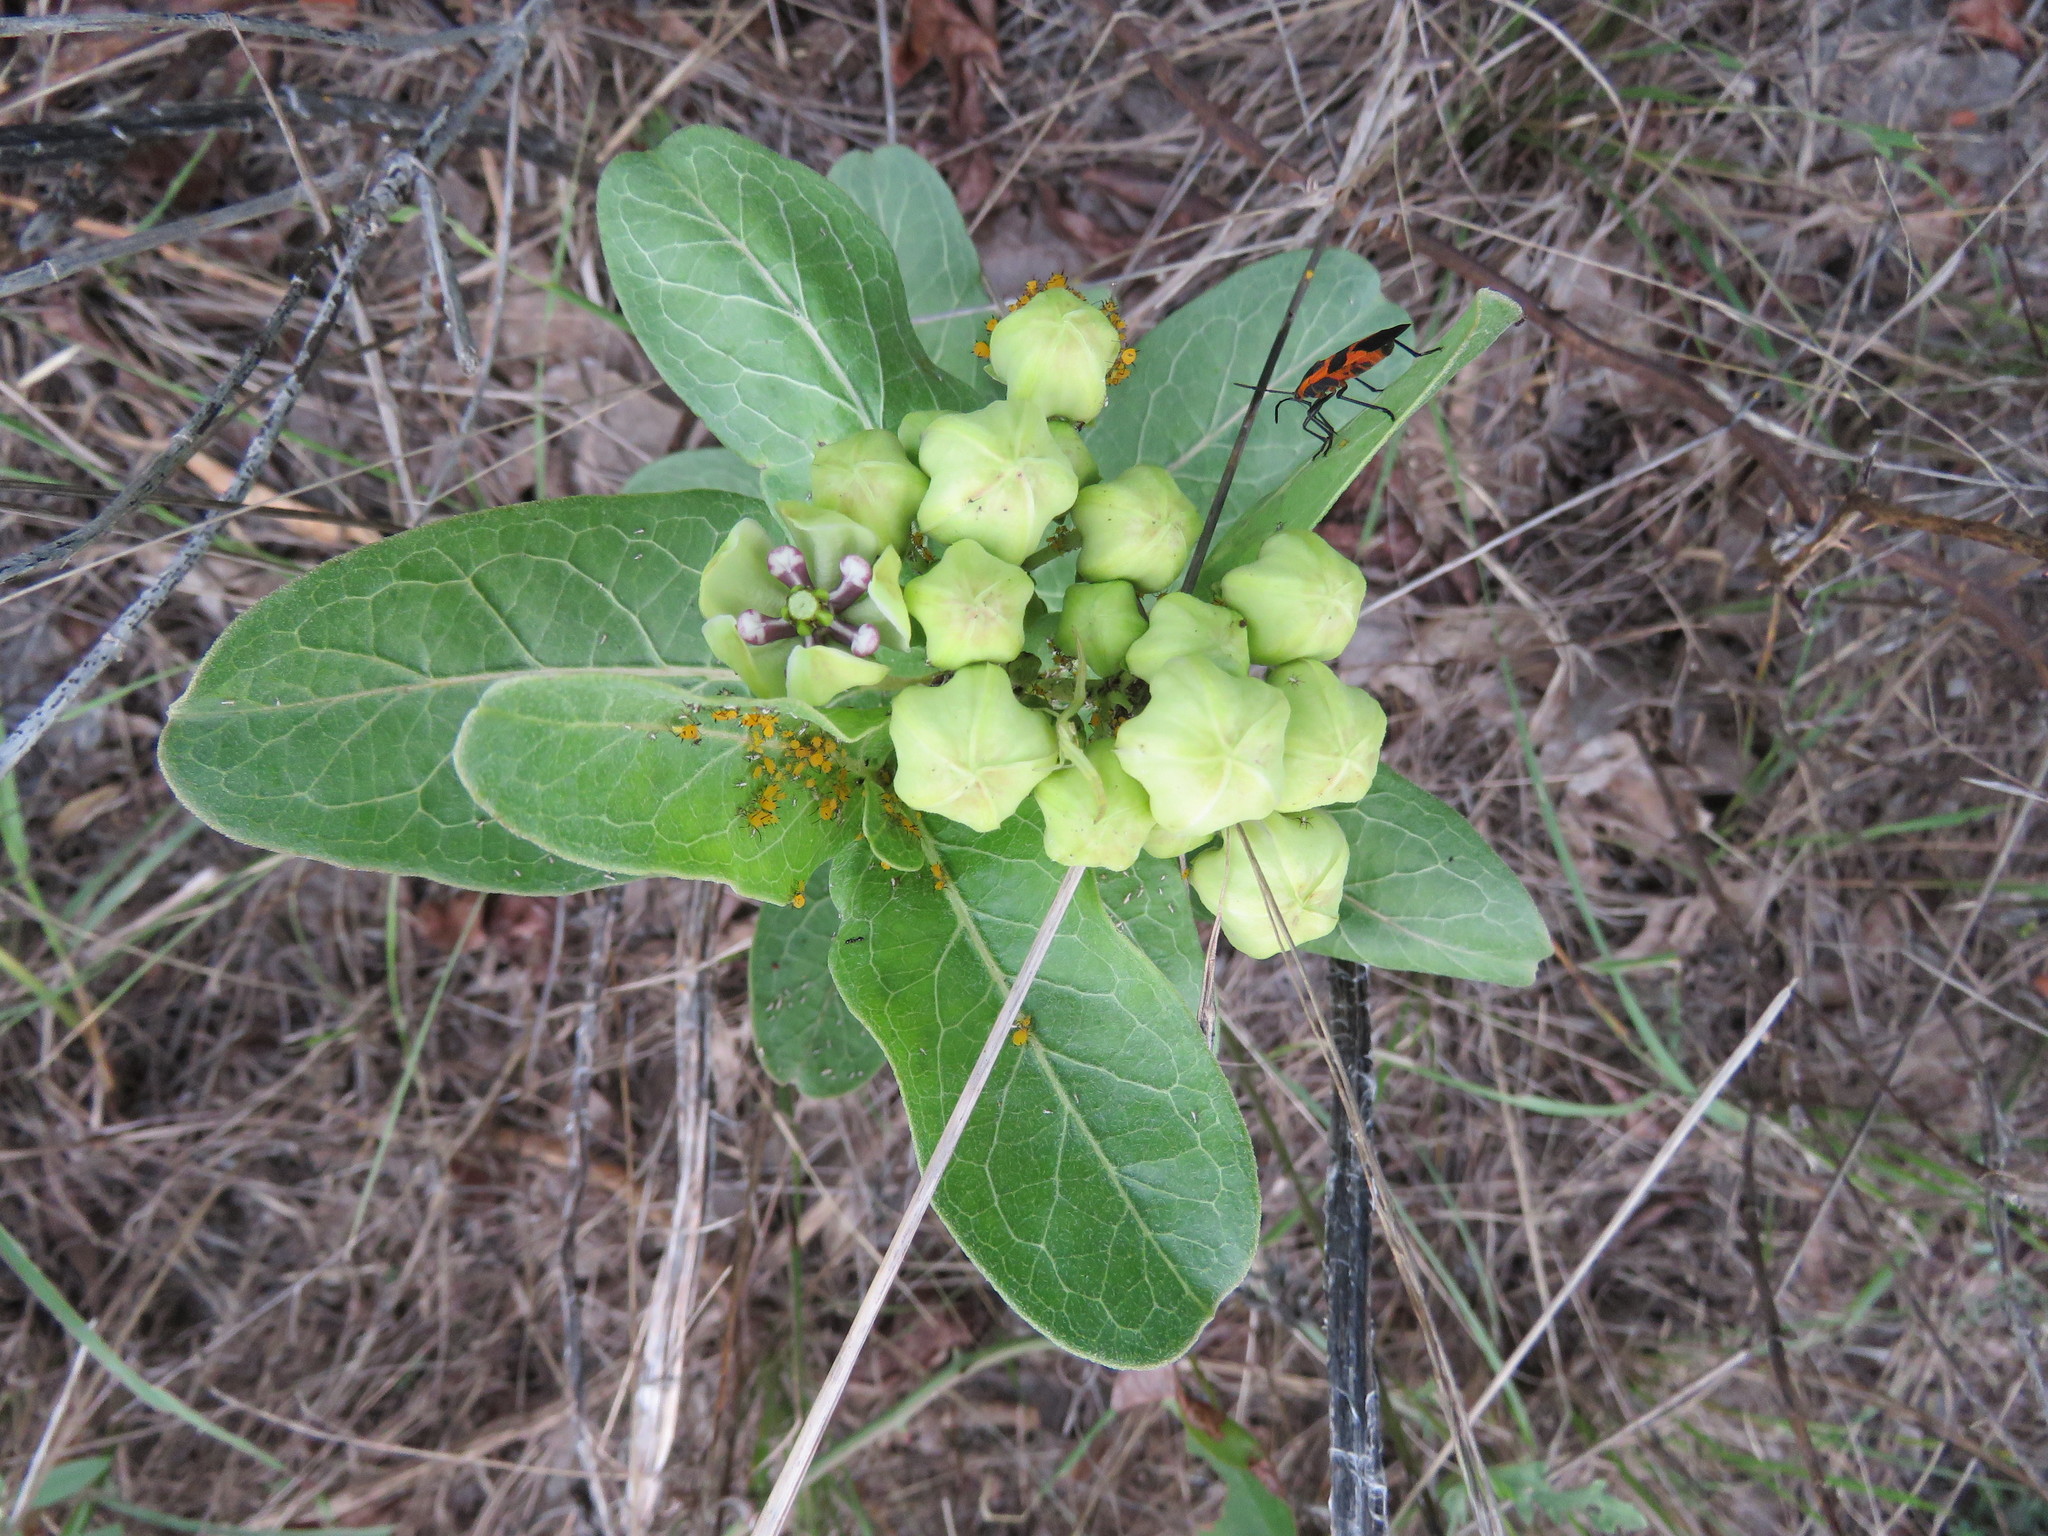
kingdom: Plantae
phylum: Tracheophyta
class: Magnoliopsida
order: Gentianales
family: Apocynaceae
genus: Asclepias
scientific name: Asclepias viridis
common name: Antelope-horns
